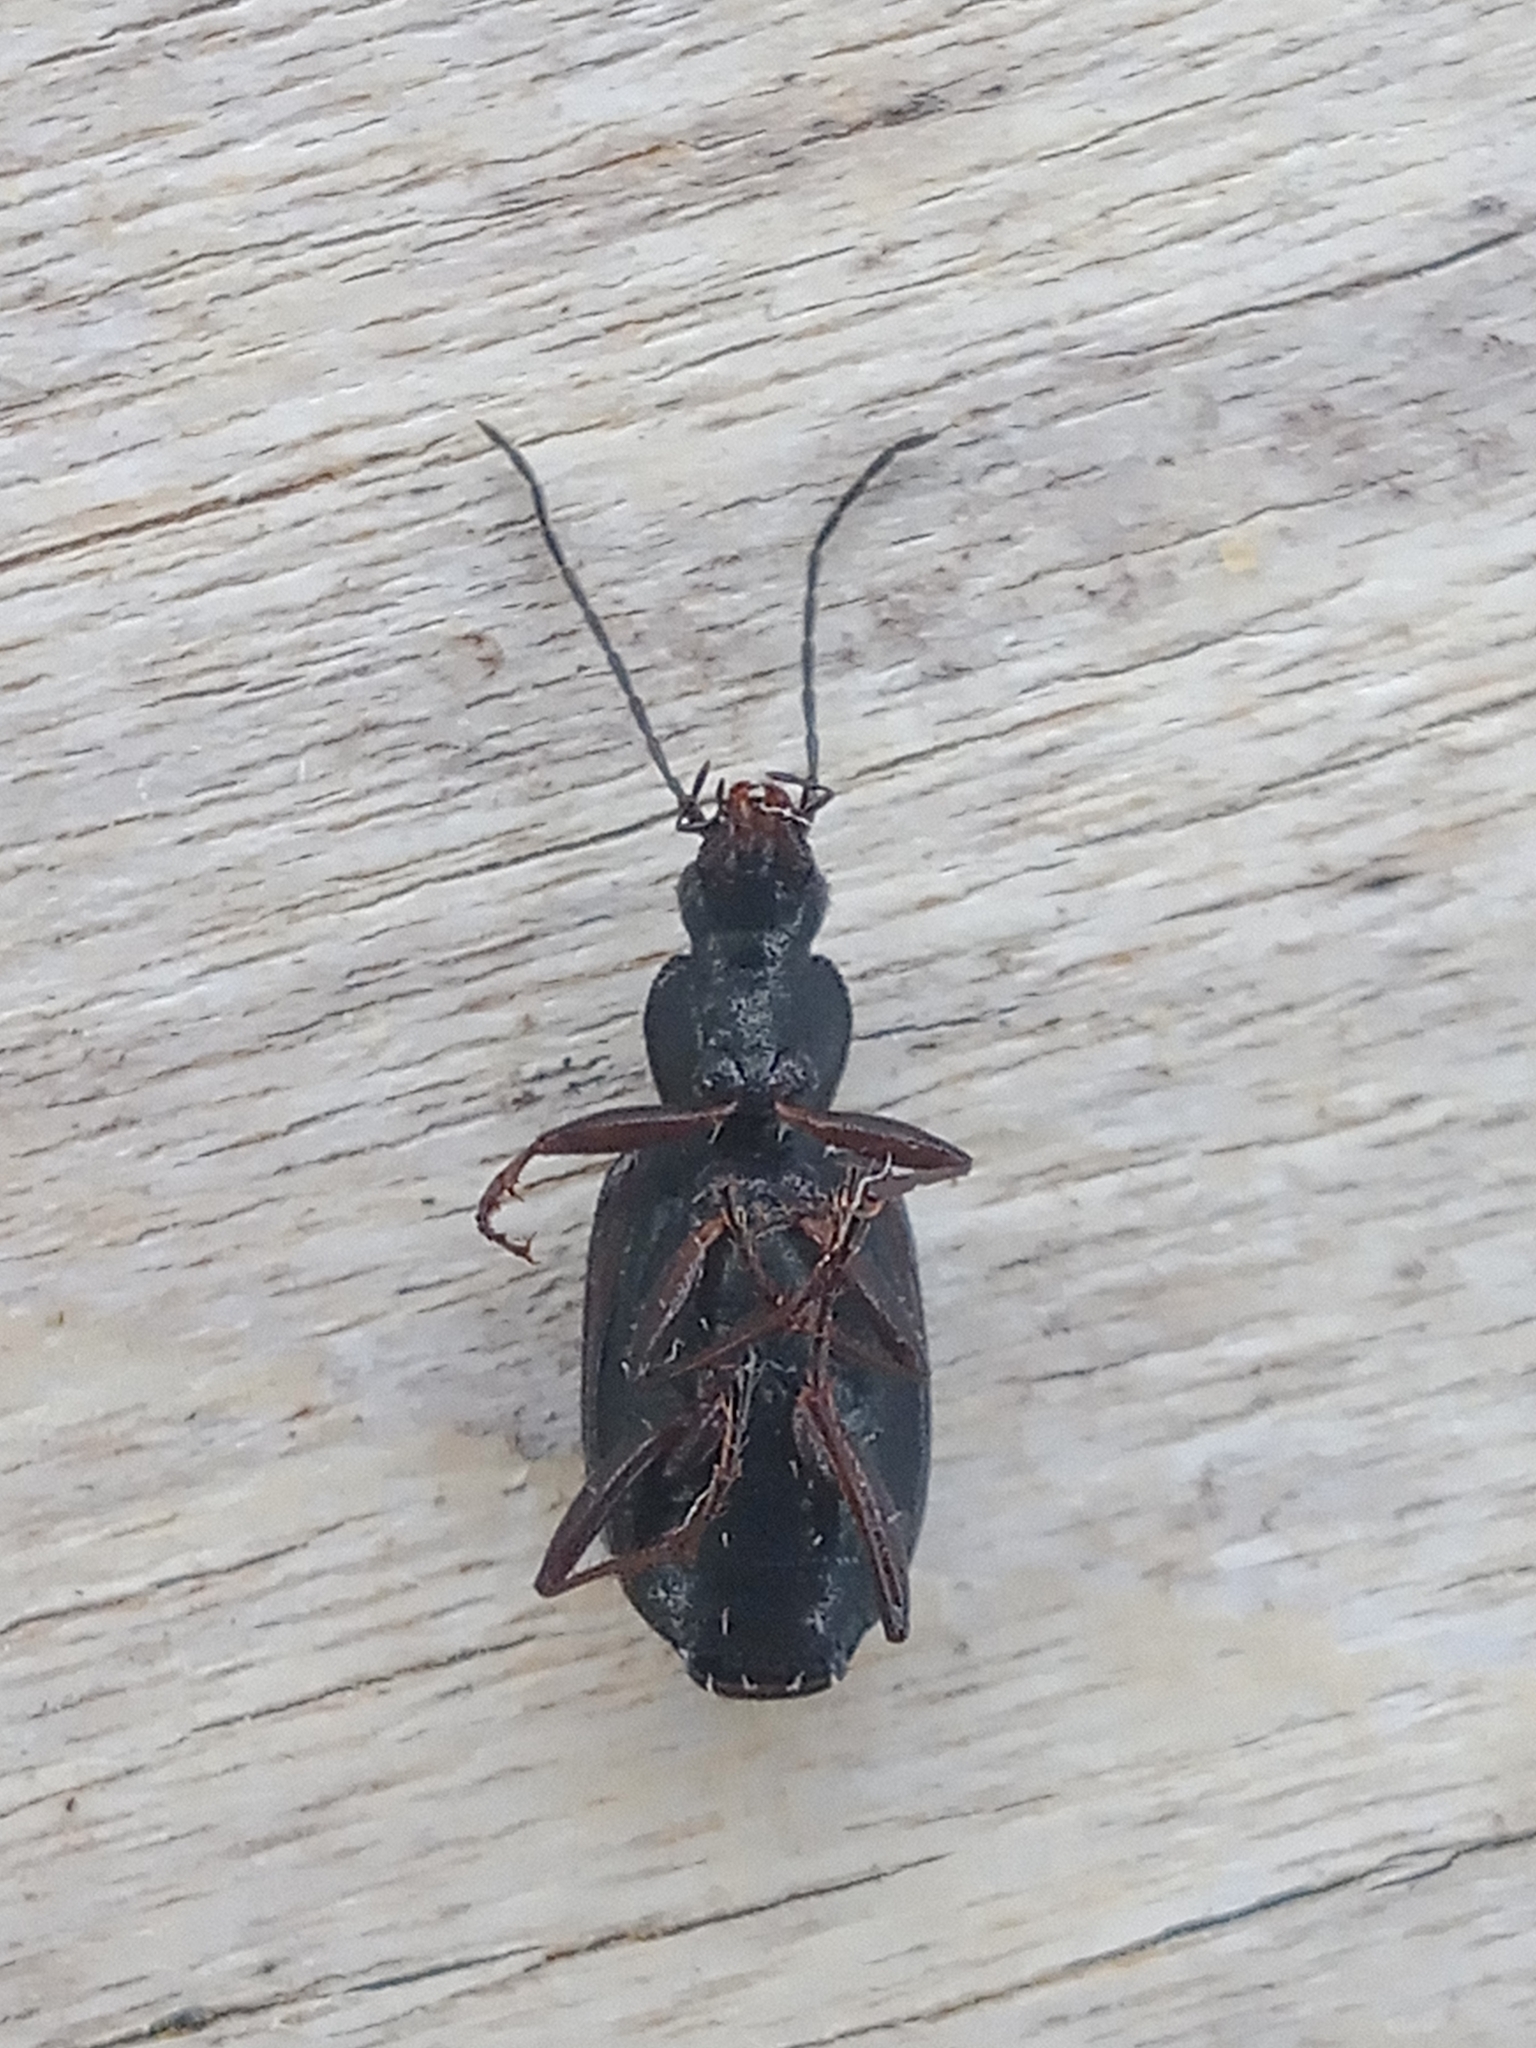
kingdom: Animalia
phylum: Arthropoda
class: Insecta
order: Coleoptera
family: Carabidae
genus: Platynus
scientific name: Platynus assimilis
